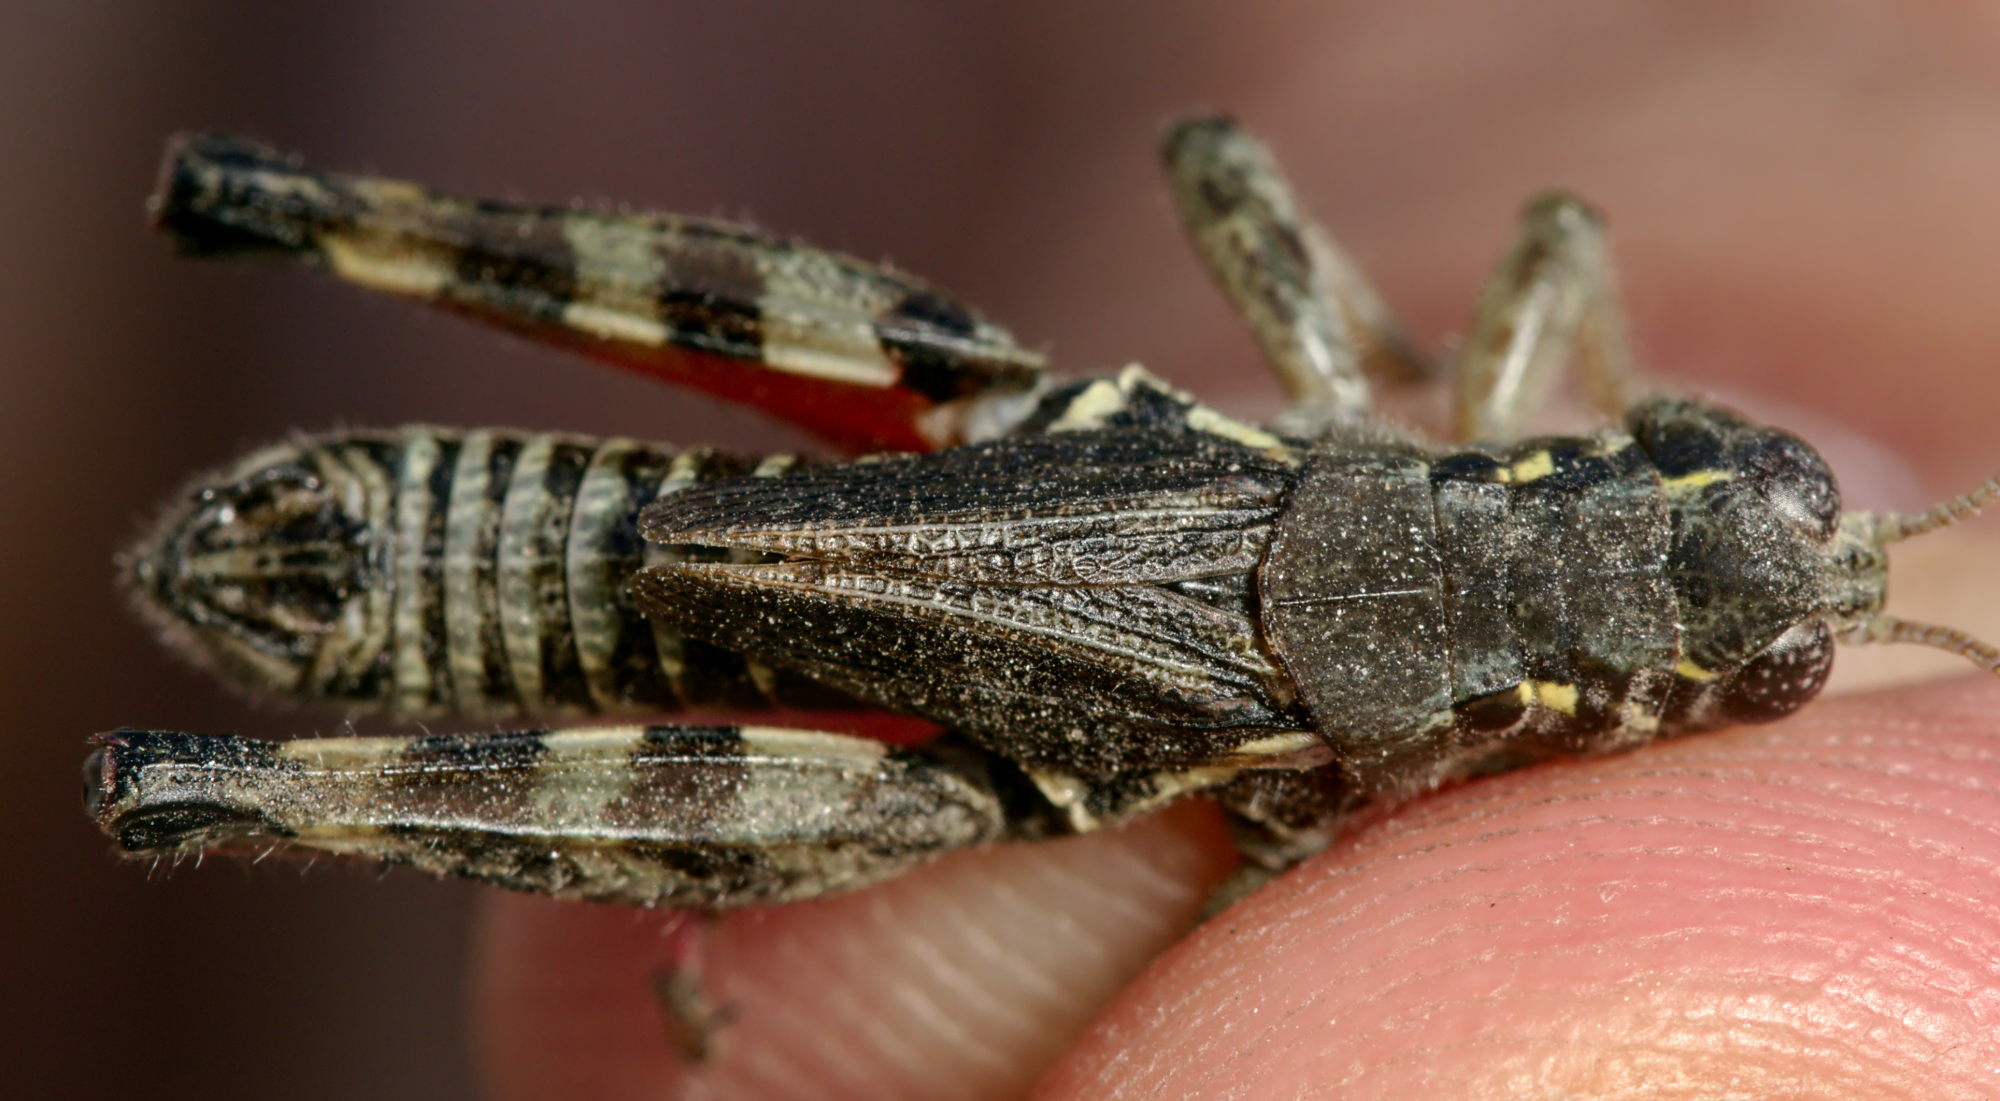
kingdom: Animalia
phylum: Arthropoda
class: Insecta
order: Orthoptera
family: Acrididae
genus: Bohemanella
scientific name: Bohemanella frigida
